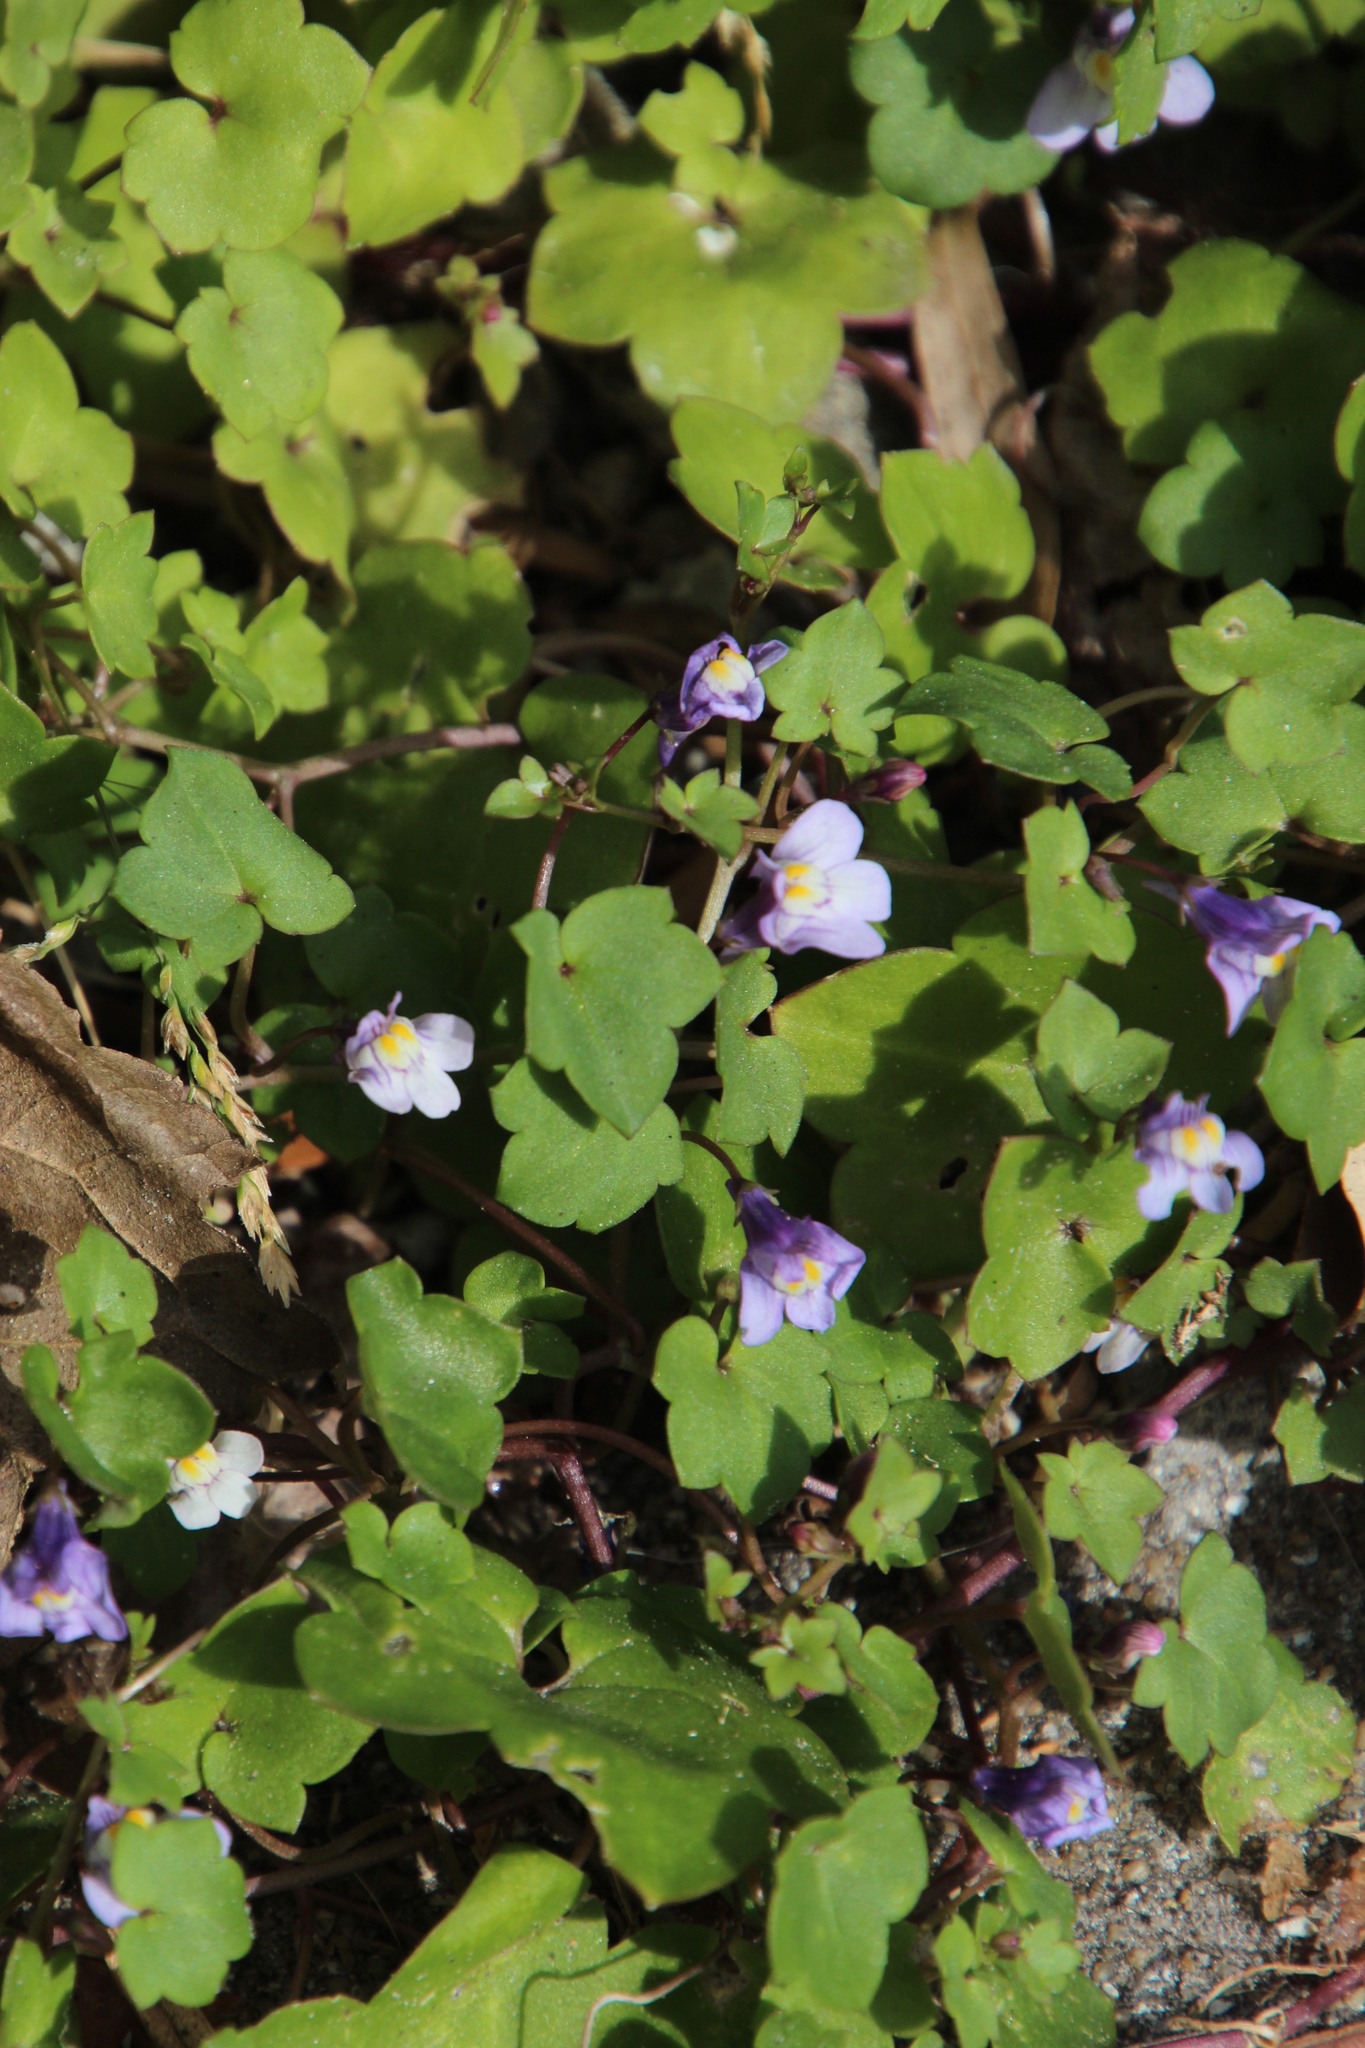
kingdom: Plantae
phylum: Tracheophyta
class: Magnoliopsida
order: Lamiales
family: Plantaginaceae
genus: Cymbalaria
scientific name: Cymbalaria muralis
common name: Ivy-leaved toadflax
